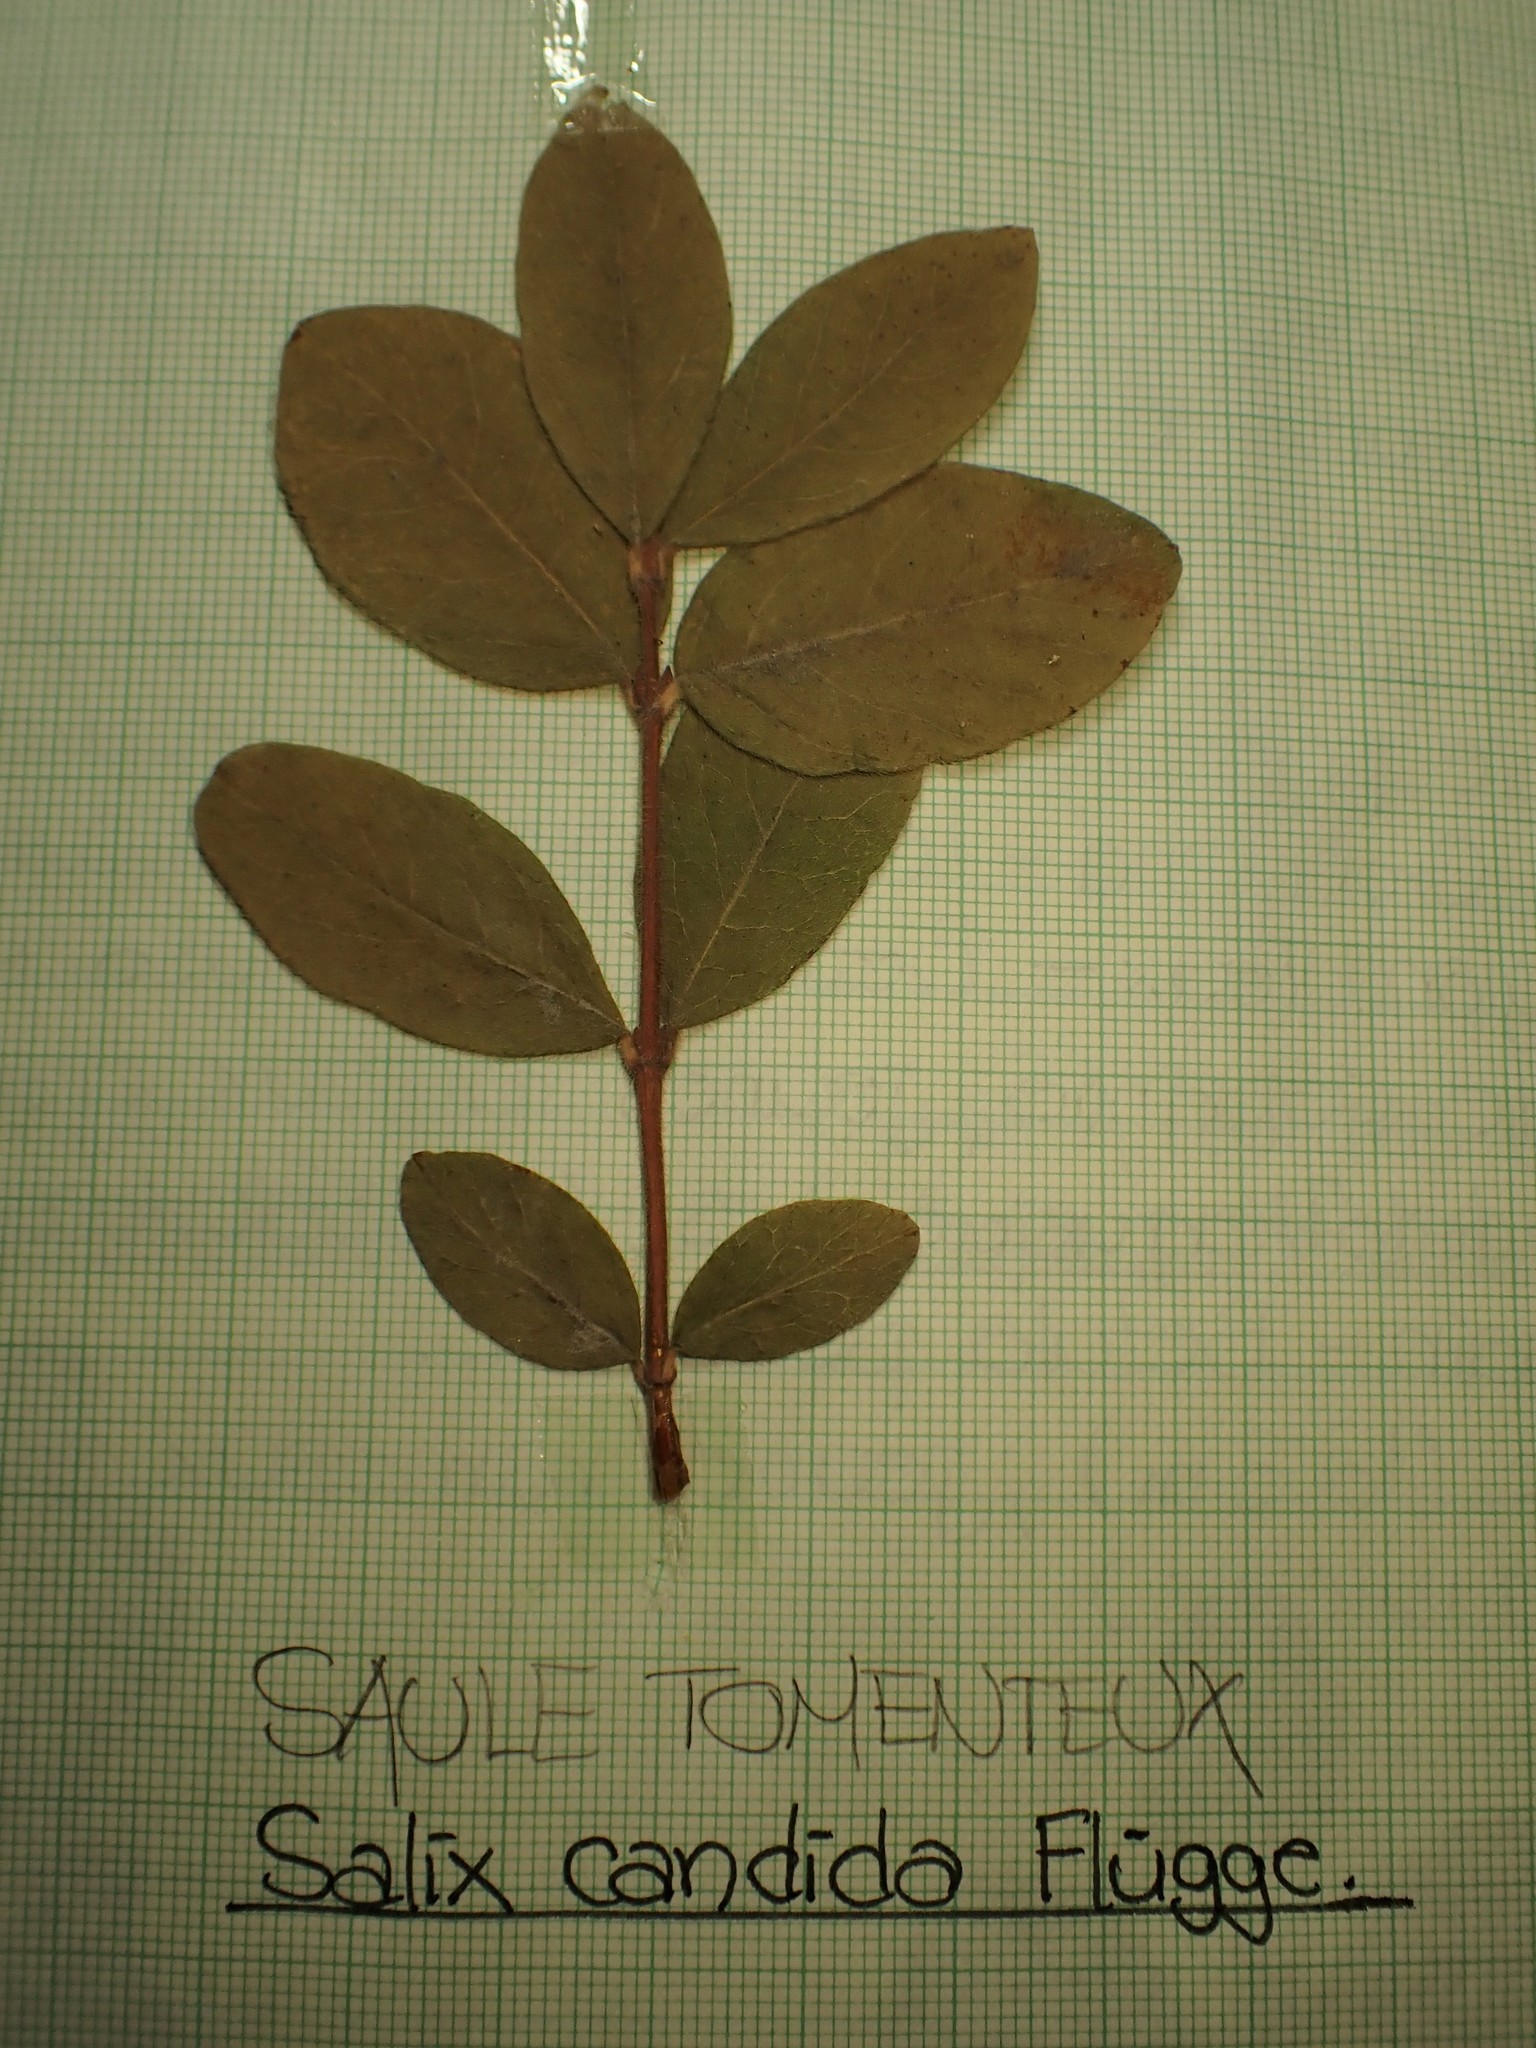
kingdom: Plantae
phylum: Tracheophyta
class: Magnoliopsida
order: Dipsacales
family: Caprifoliaceae
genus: Symphoricarpos
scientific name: Symphoricarpos albus
